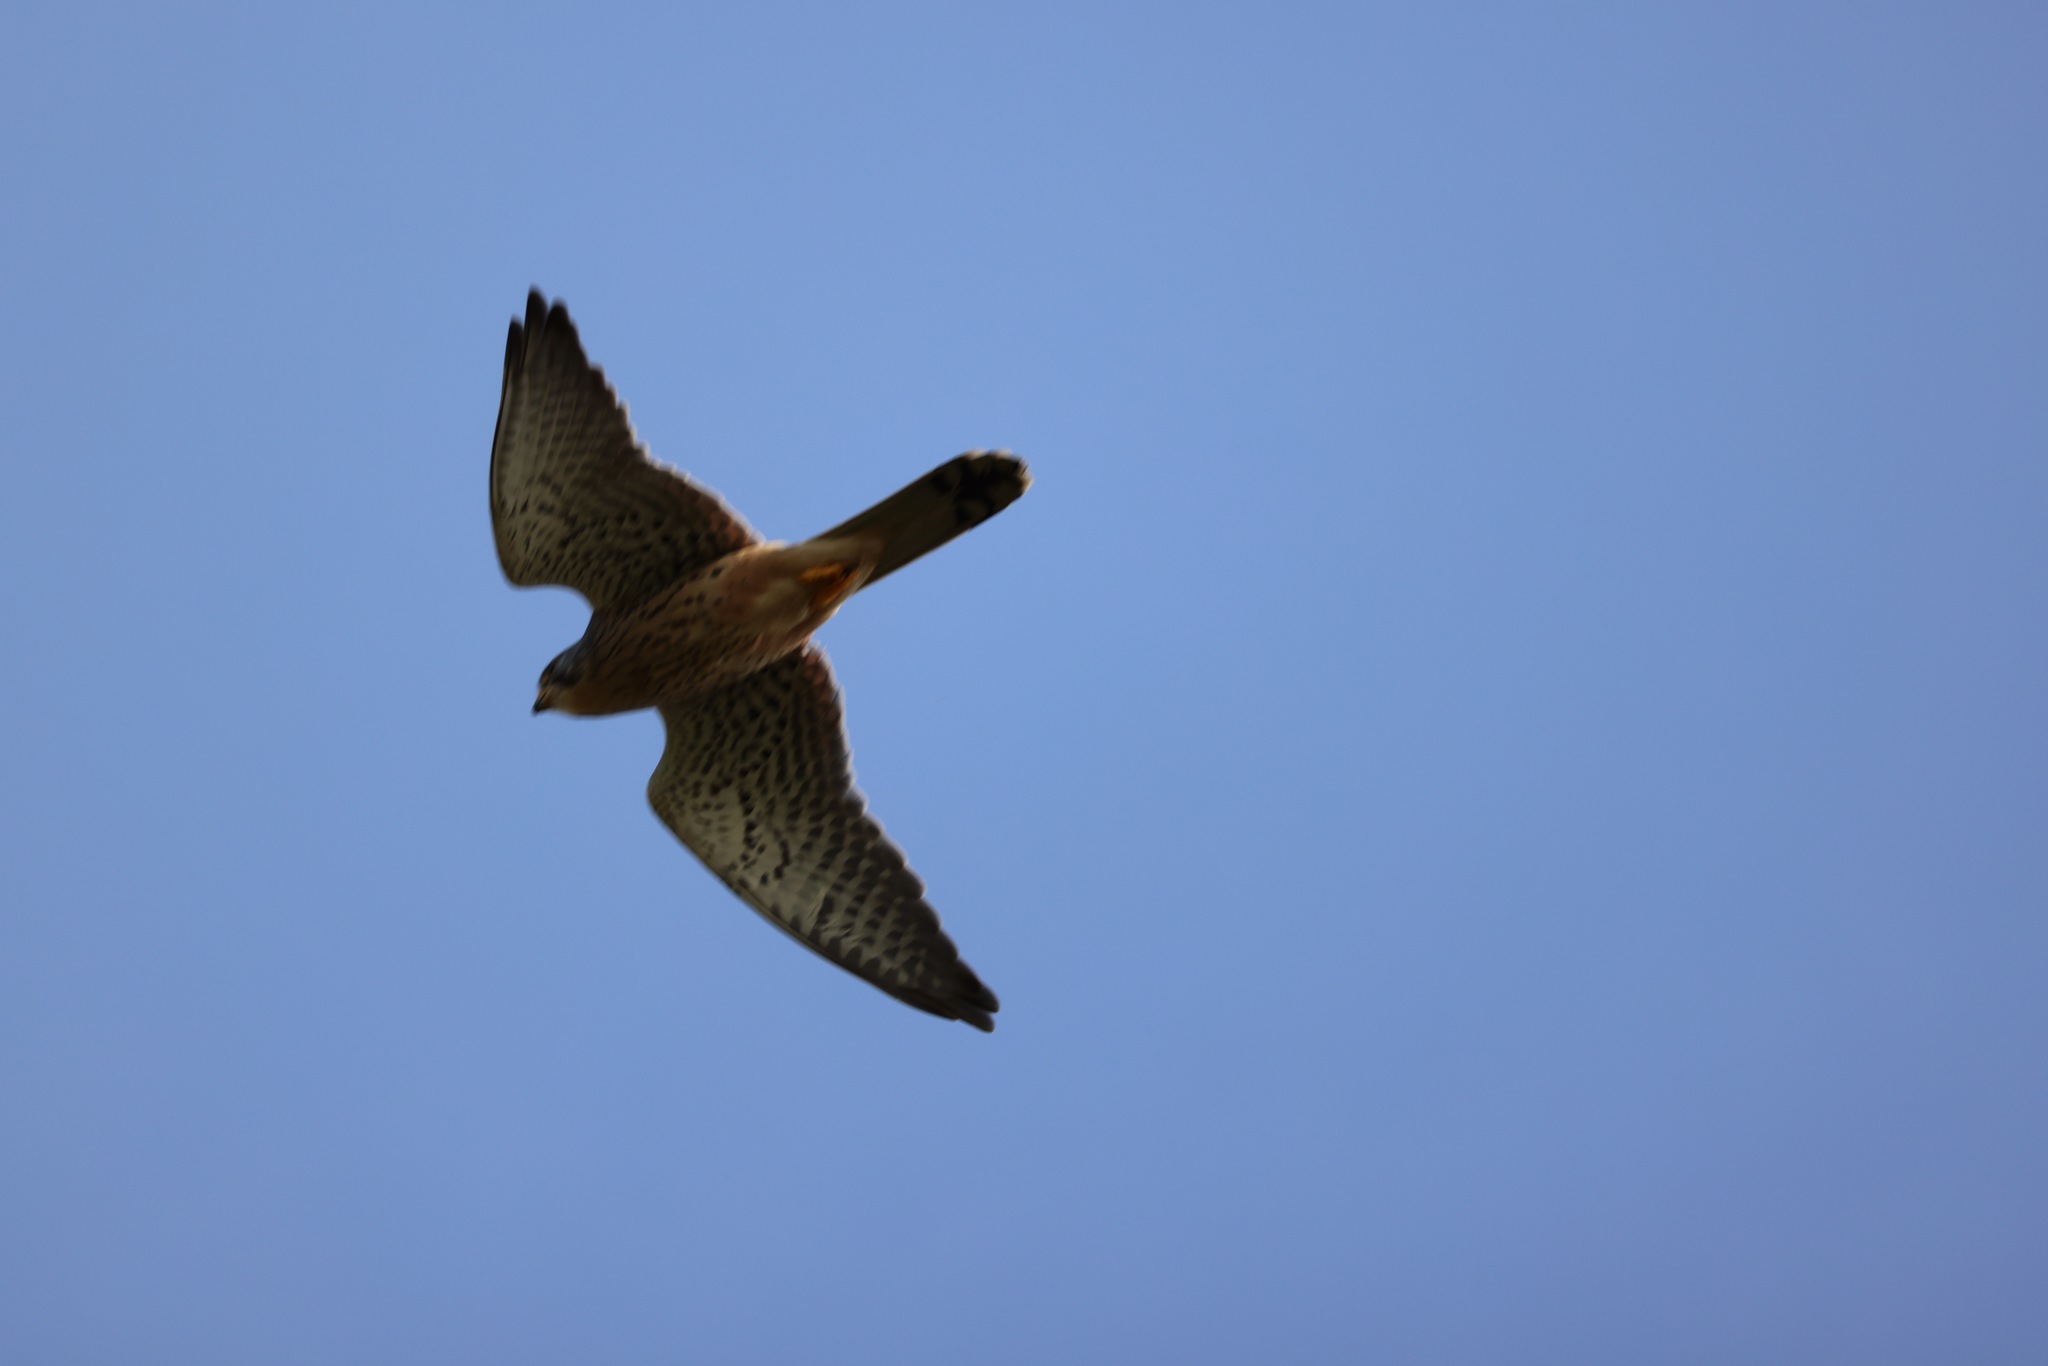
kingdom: Animalia
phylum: Chordata
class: Aves
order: Falconiformes
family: Falconidae
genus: Falco
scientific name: Falco tinnunculus
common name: Common kestrel
